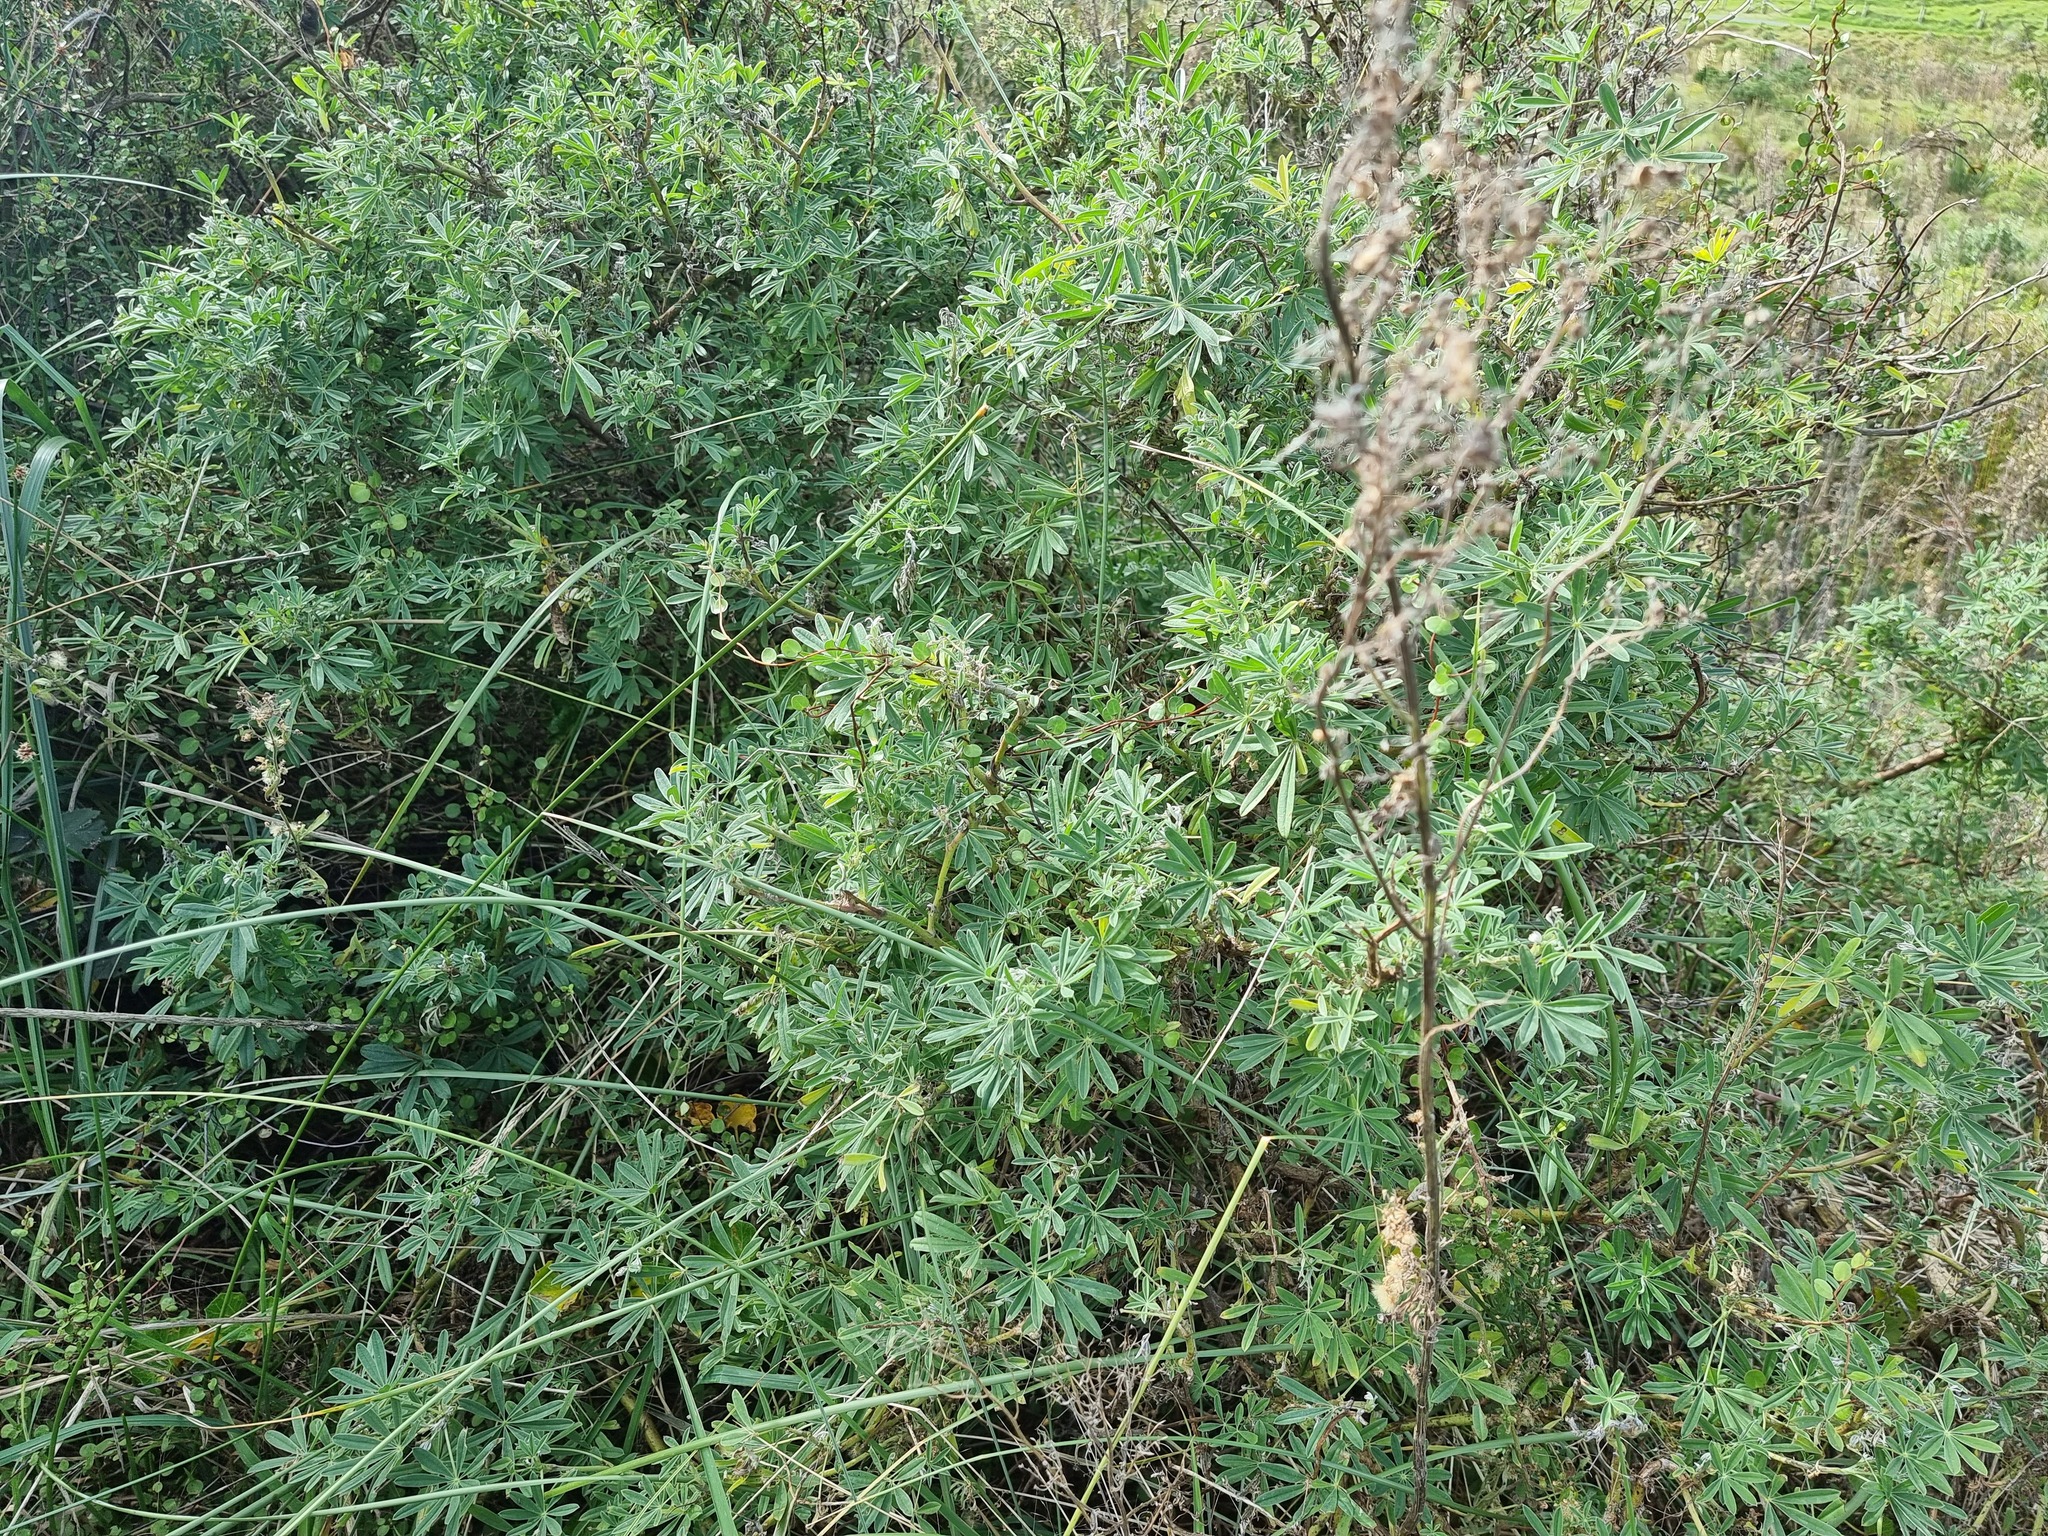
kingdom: Plantae
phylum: Tracheophyta
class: Magnoliopsida
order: Fabales
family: Fabaceae
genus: Lupinus
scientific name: Lupinus arboreus
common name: Yellow bush lupine
